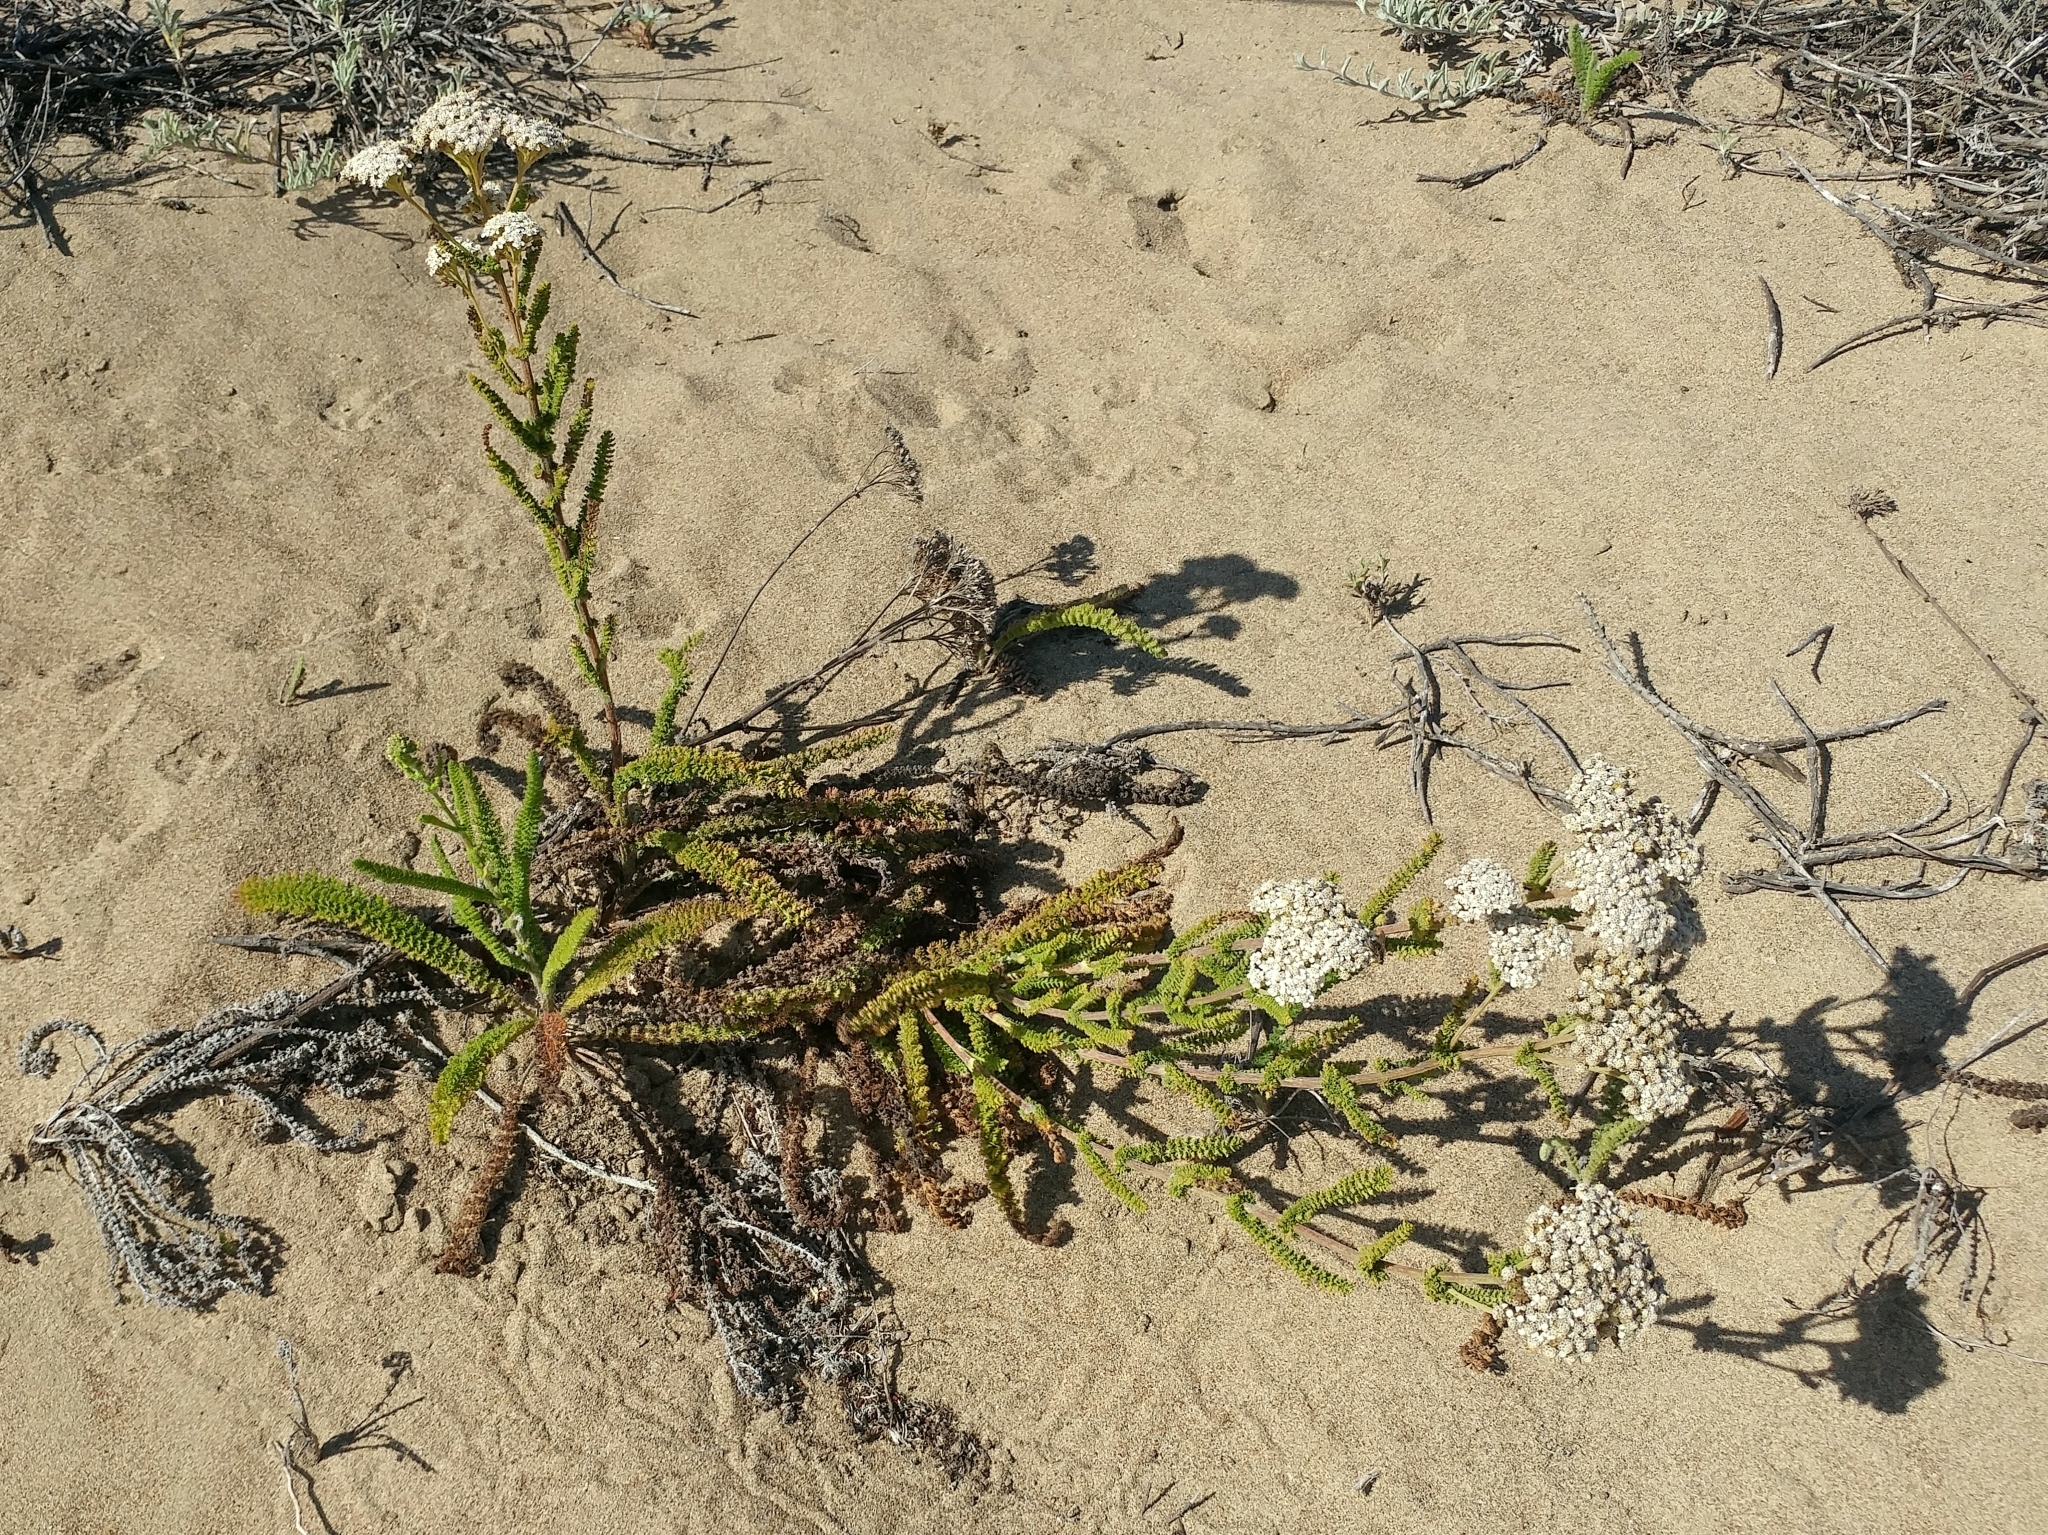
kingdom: Plantae
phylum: Tracheophyta
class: Magnoliopsida
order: Asterales
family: Asteraceae
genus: Achillea
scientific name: Achillea millefolium
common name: Yarrow
